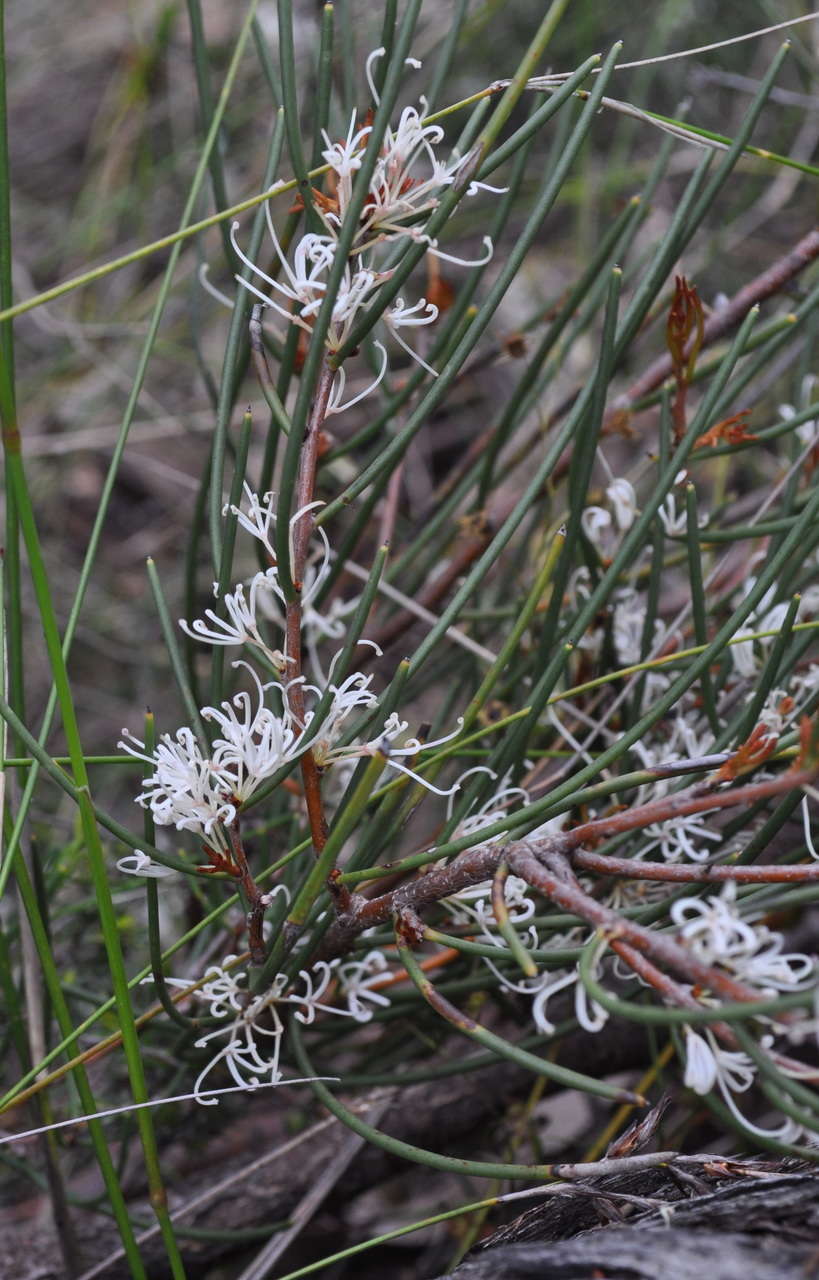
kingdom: Plantae
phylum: Tracheophyta
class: Magnoliopsida
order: Proteales
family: Proteaceae
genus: Hakea
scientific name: Hakea rostrata
